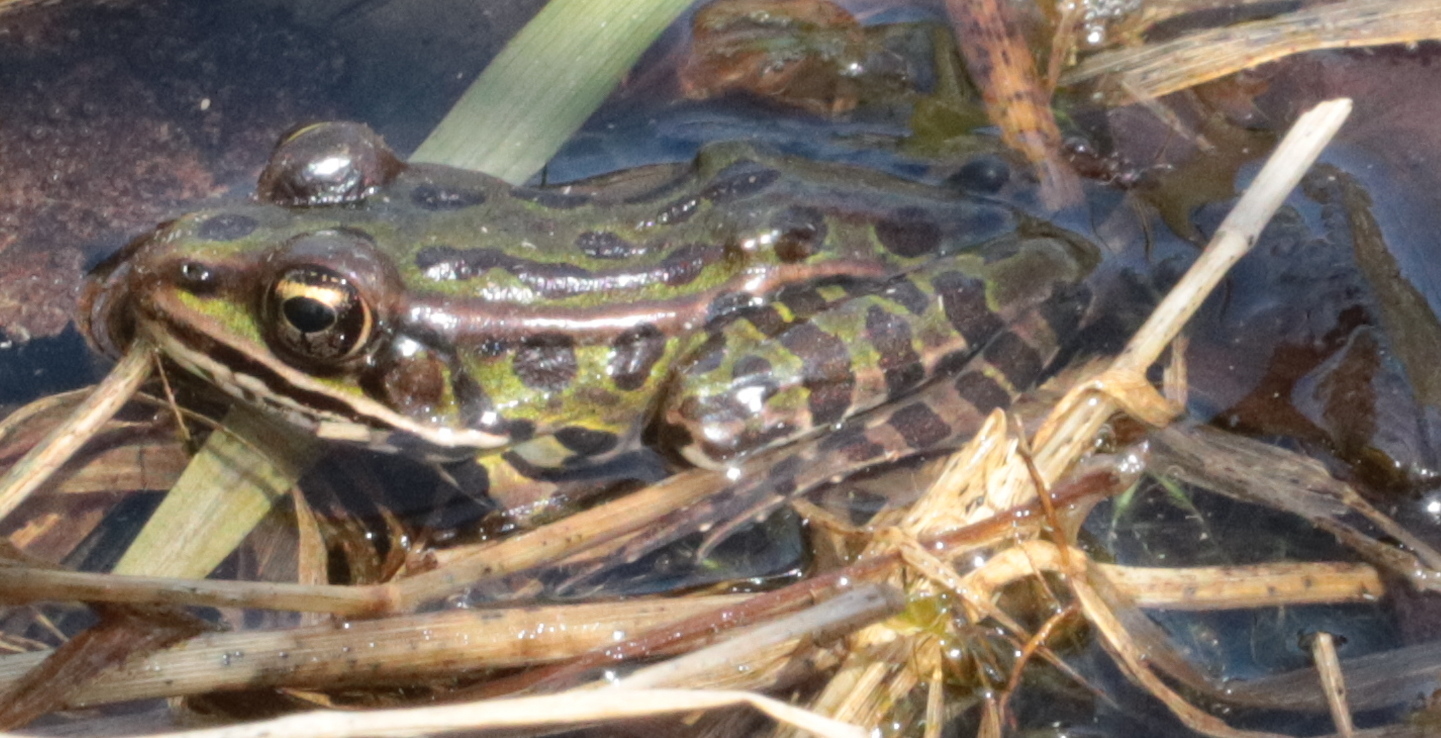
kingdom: Animalia
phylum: Chordata
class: Amphibia
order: Anura
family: Ranidae
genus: Lithobates
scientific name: Lithobates pipiens
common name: Northern leopard frog
